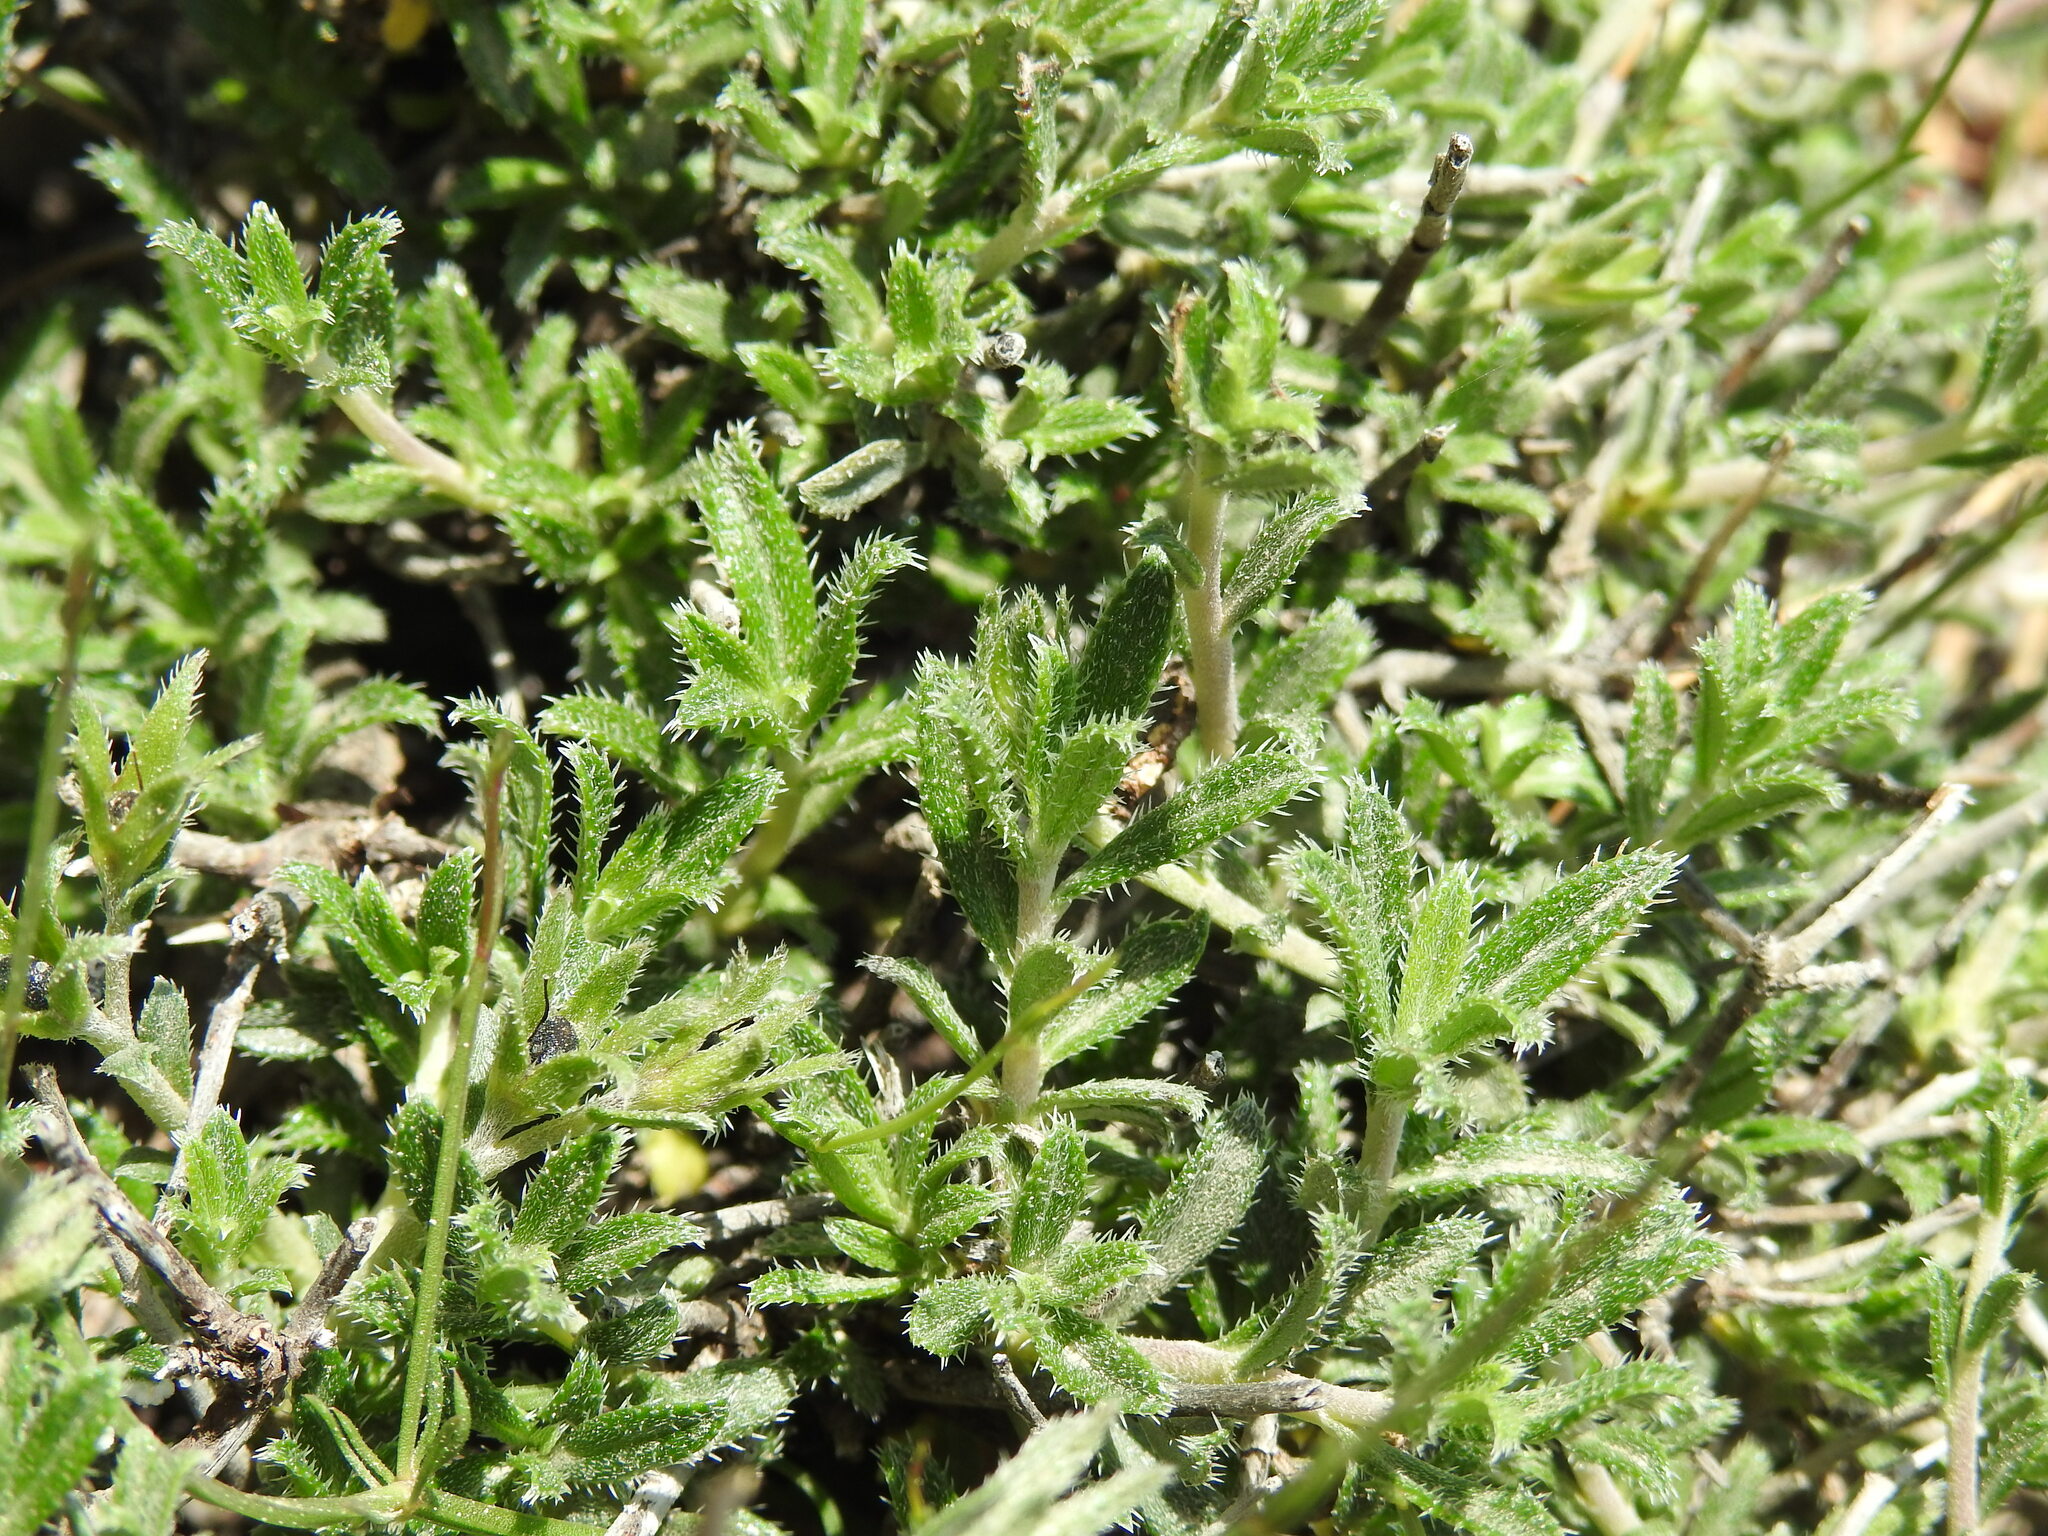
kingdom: Plantae
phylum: Tracheophyta
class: Magnoliopsida
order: Boraginales
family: Boraginaceae
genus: Lithodora
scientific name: Lithodora hispidula
